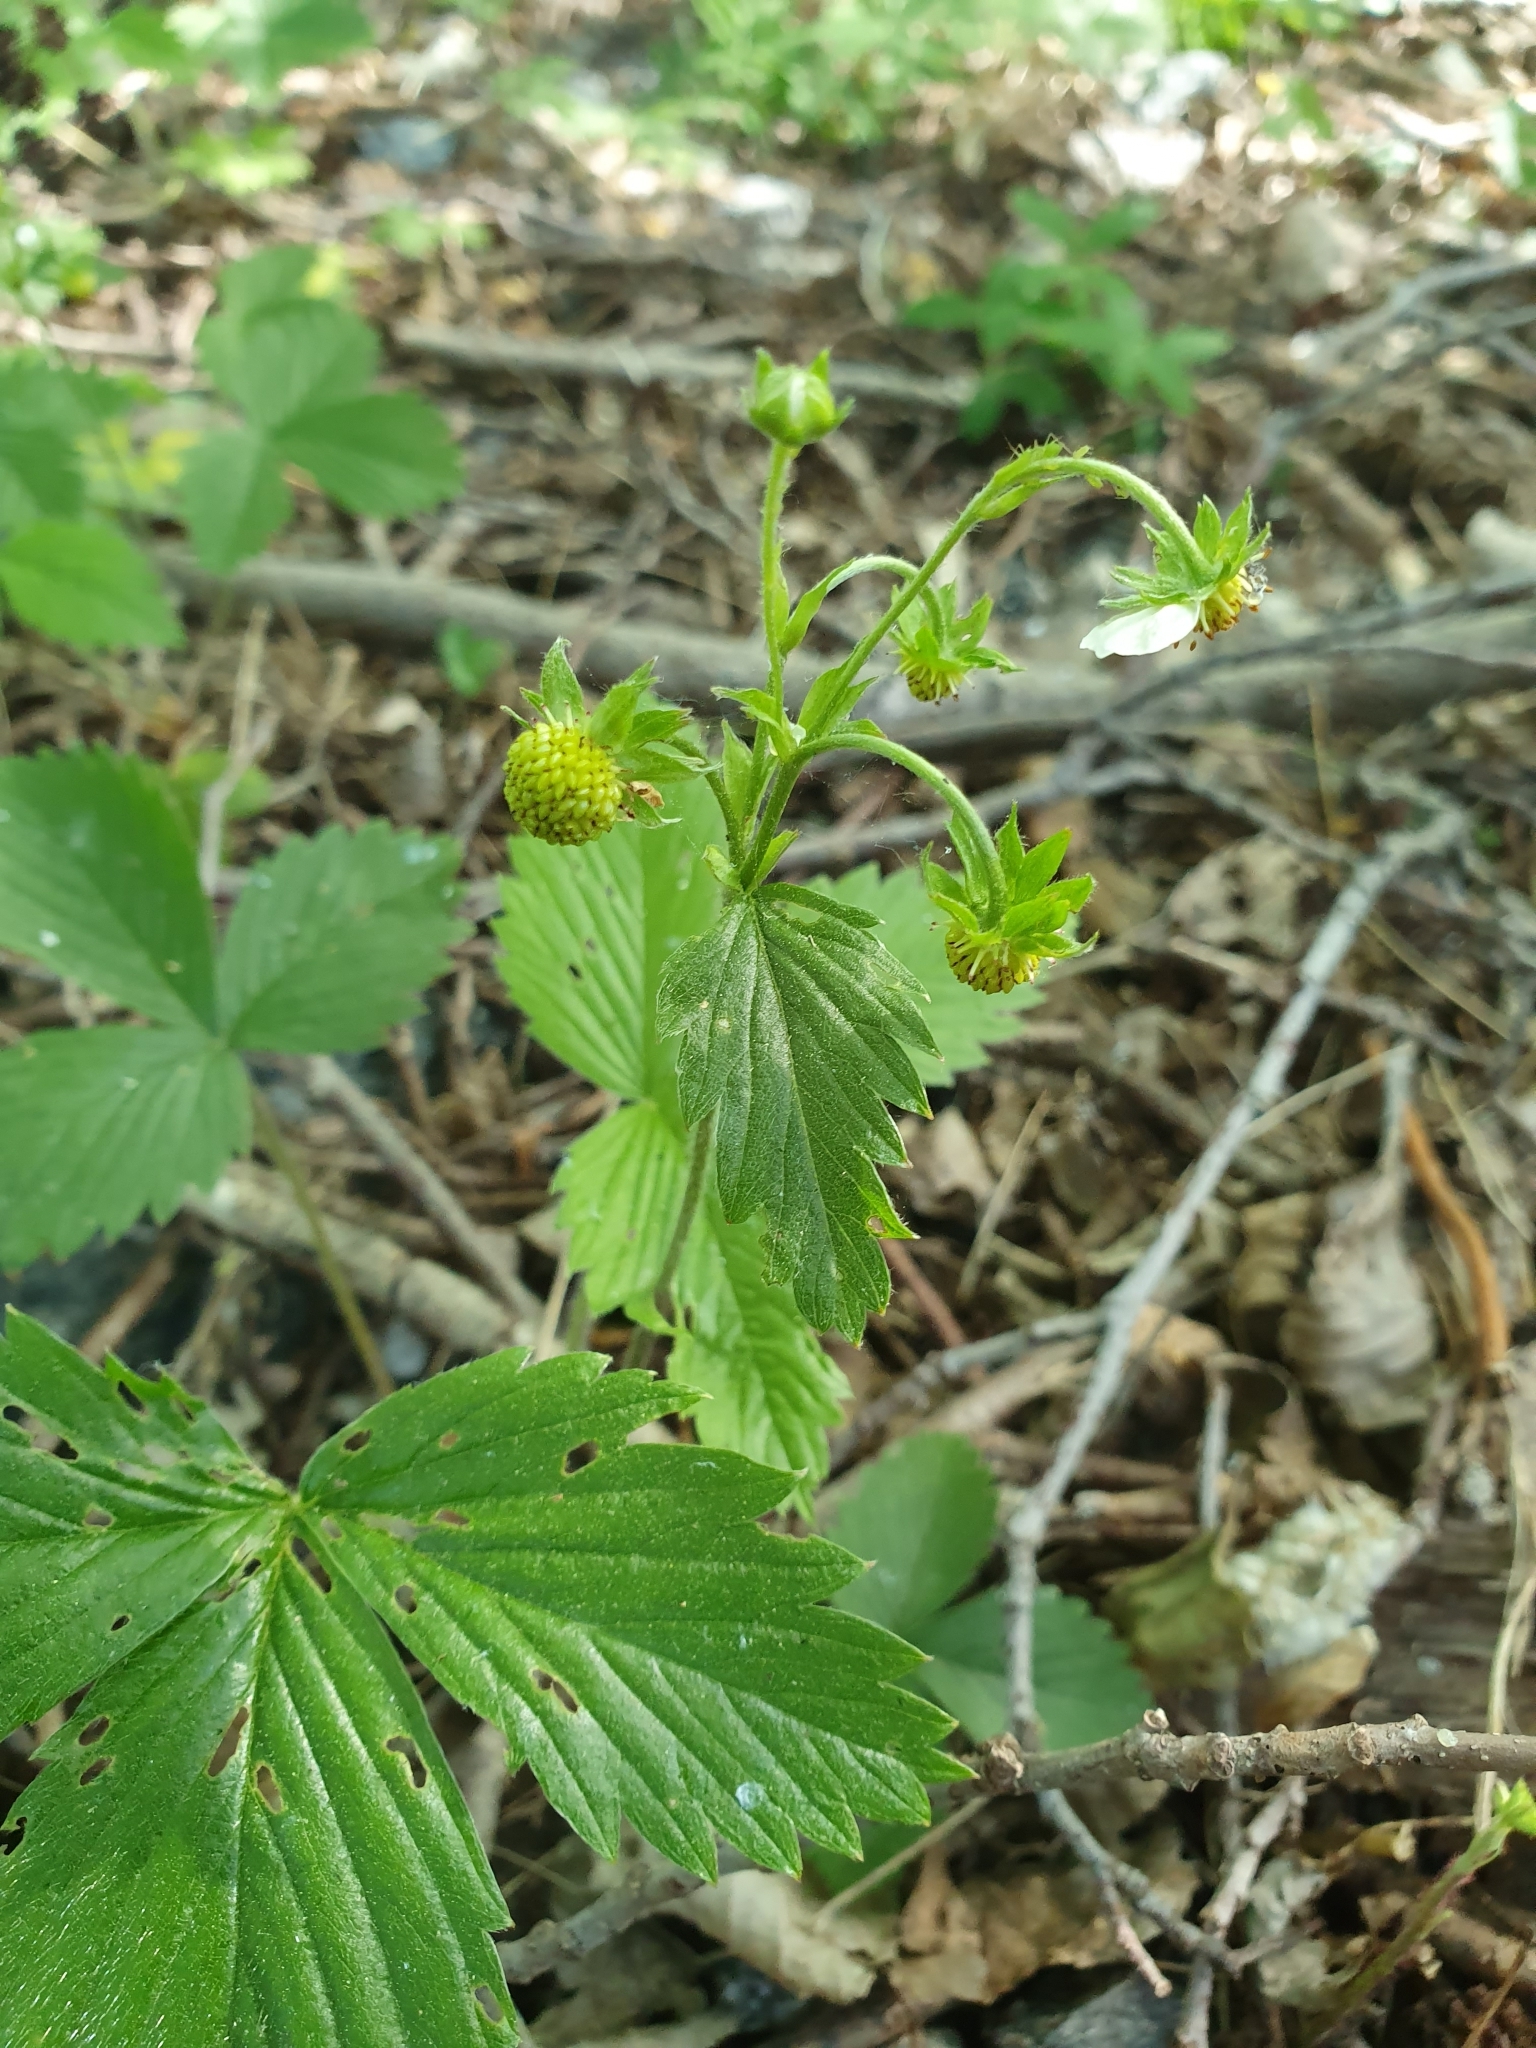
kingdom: Plantae
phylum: Tracheophyta
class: Magnoliopsida
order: Rosales
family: Rosaceae
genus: Fragaria
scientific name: Fragaria vesca
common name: Wild strawberry
